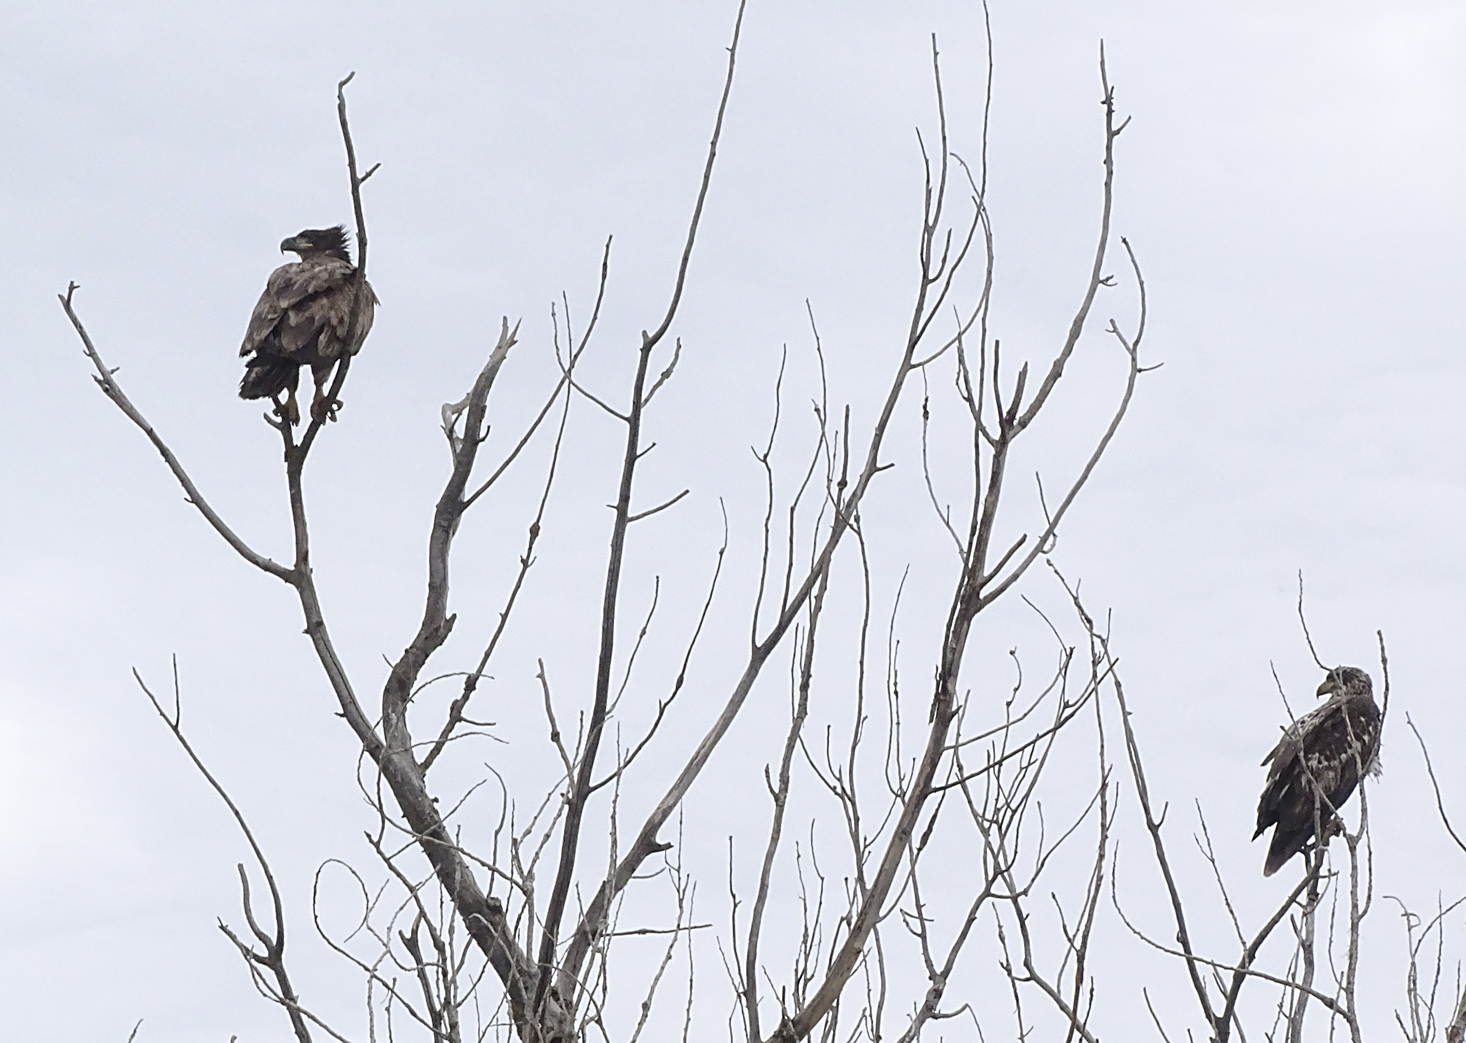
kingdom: Animalia
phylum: Chordata
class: Aves
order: Accipitriformes
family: Accipitridae
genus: Haliaeetus
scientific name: Haliaeetus leucocephalus
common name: Bald eagle
